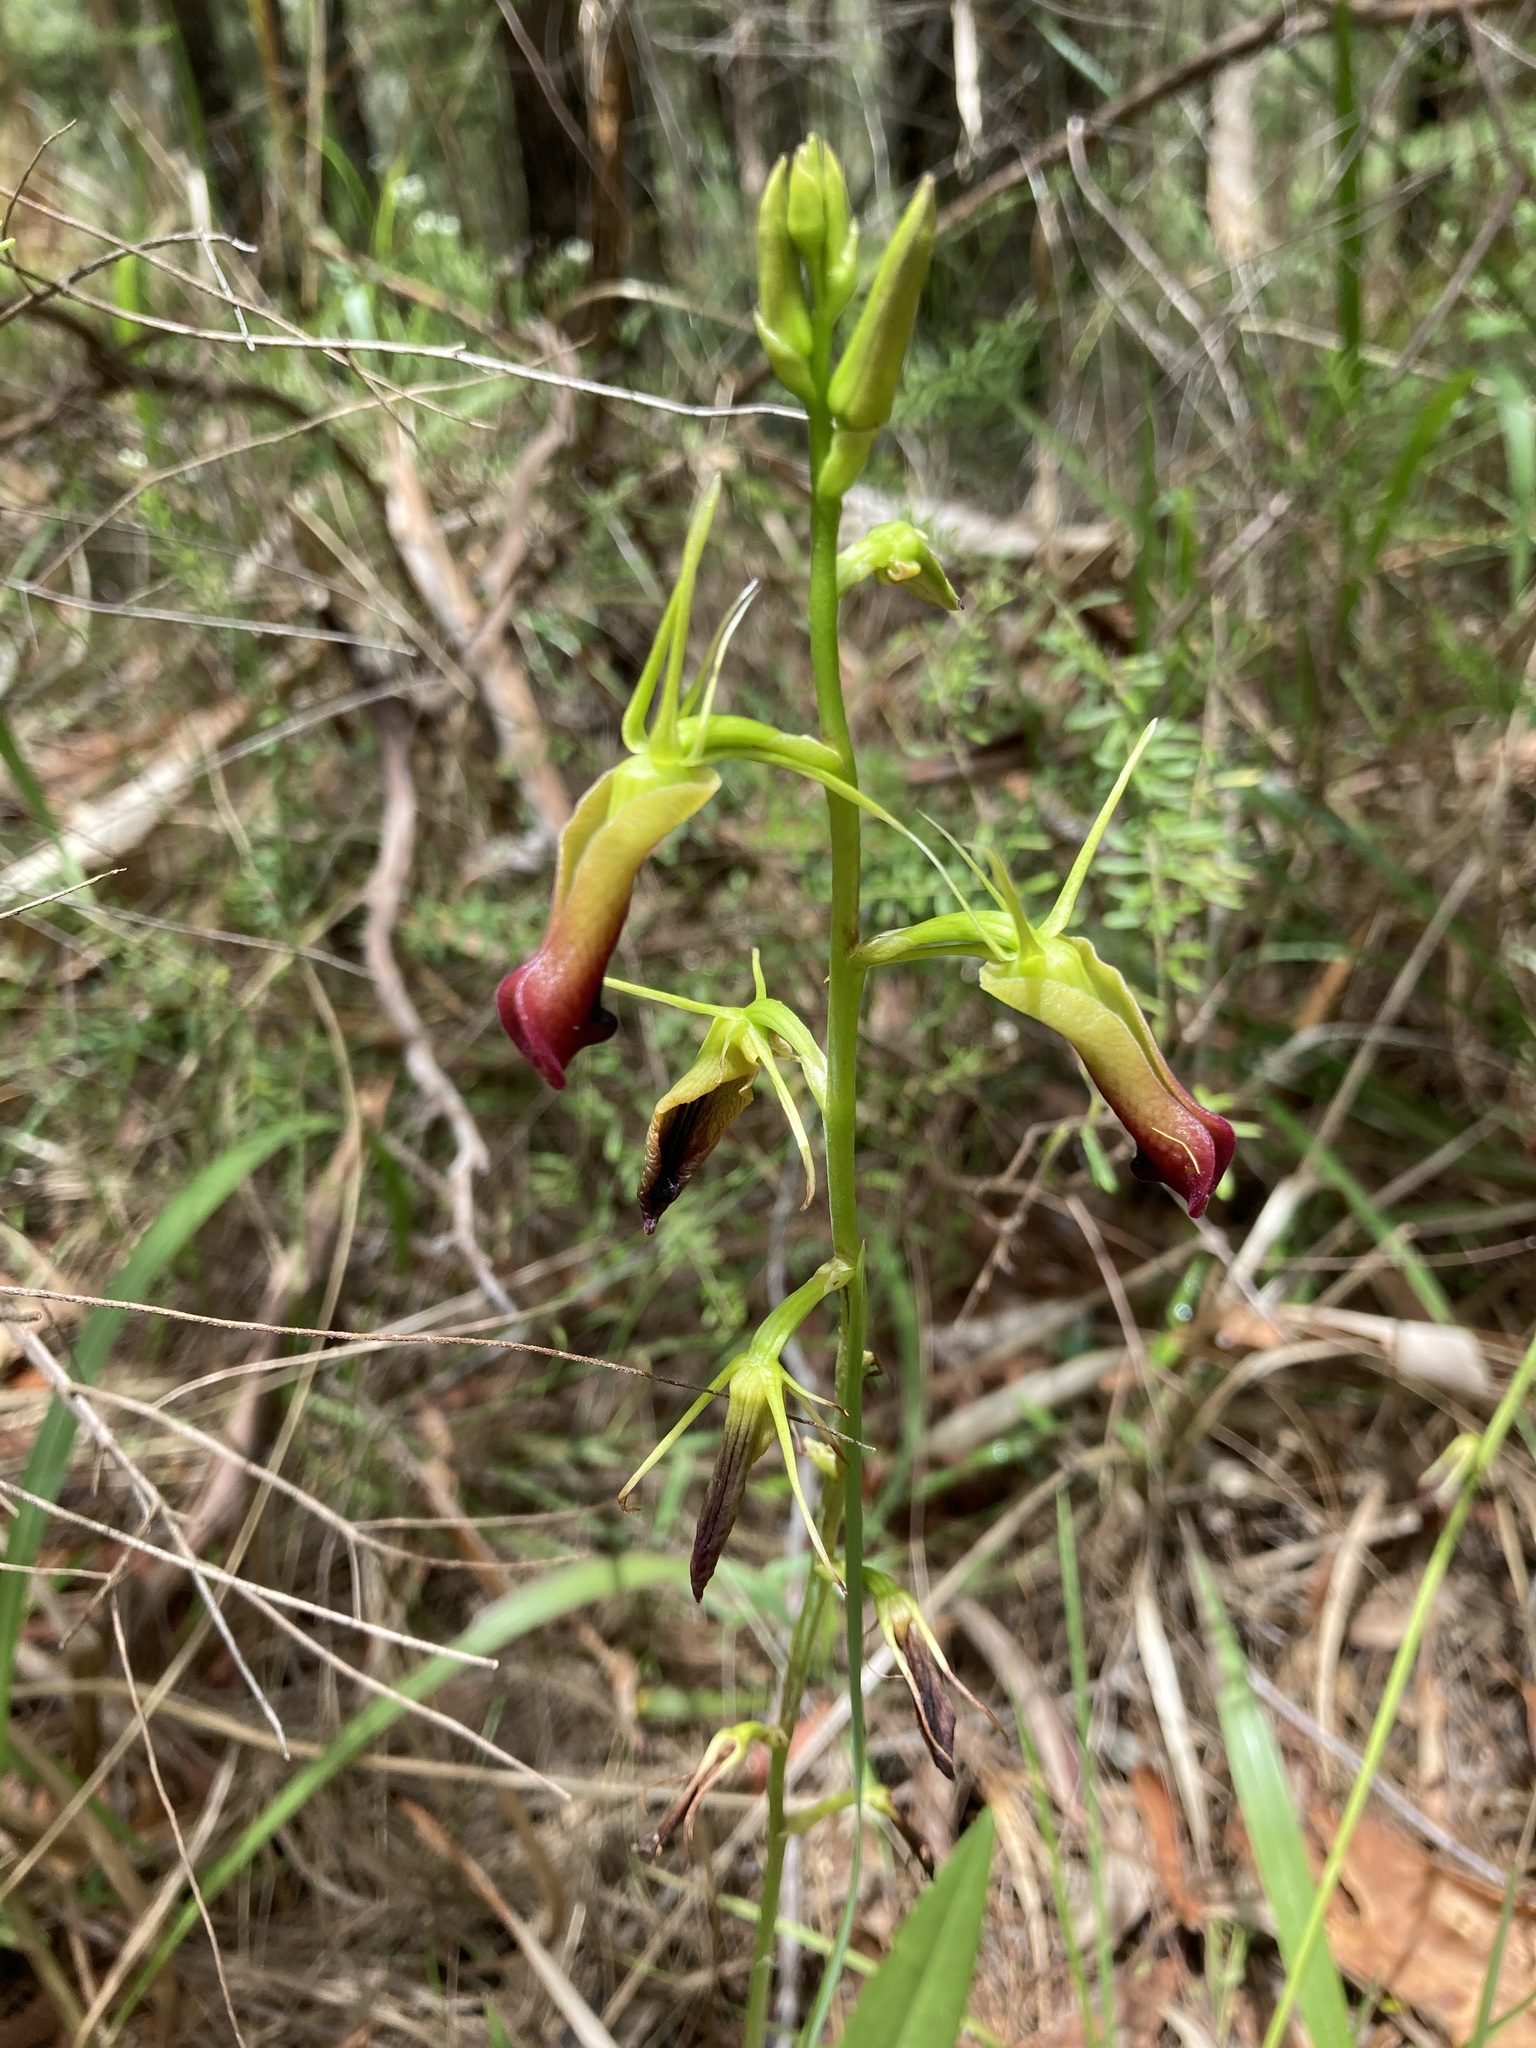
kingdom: Plantae
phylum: Tracheophyta
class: Liliopsida
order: Asparagales
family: Orchidaceae
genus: Cryptostylis
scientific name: Cryptostylis subulata
